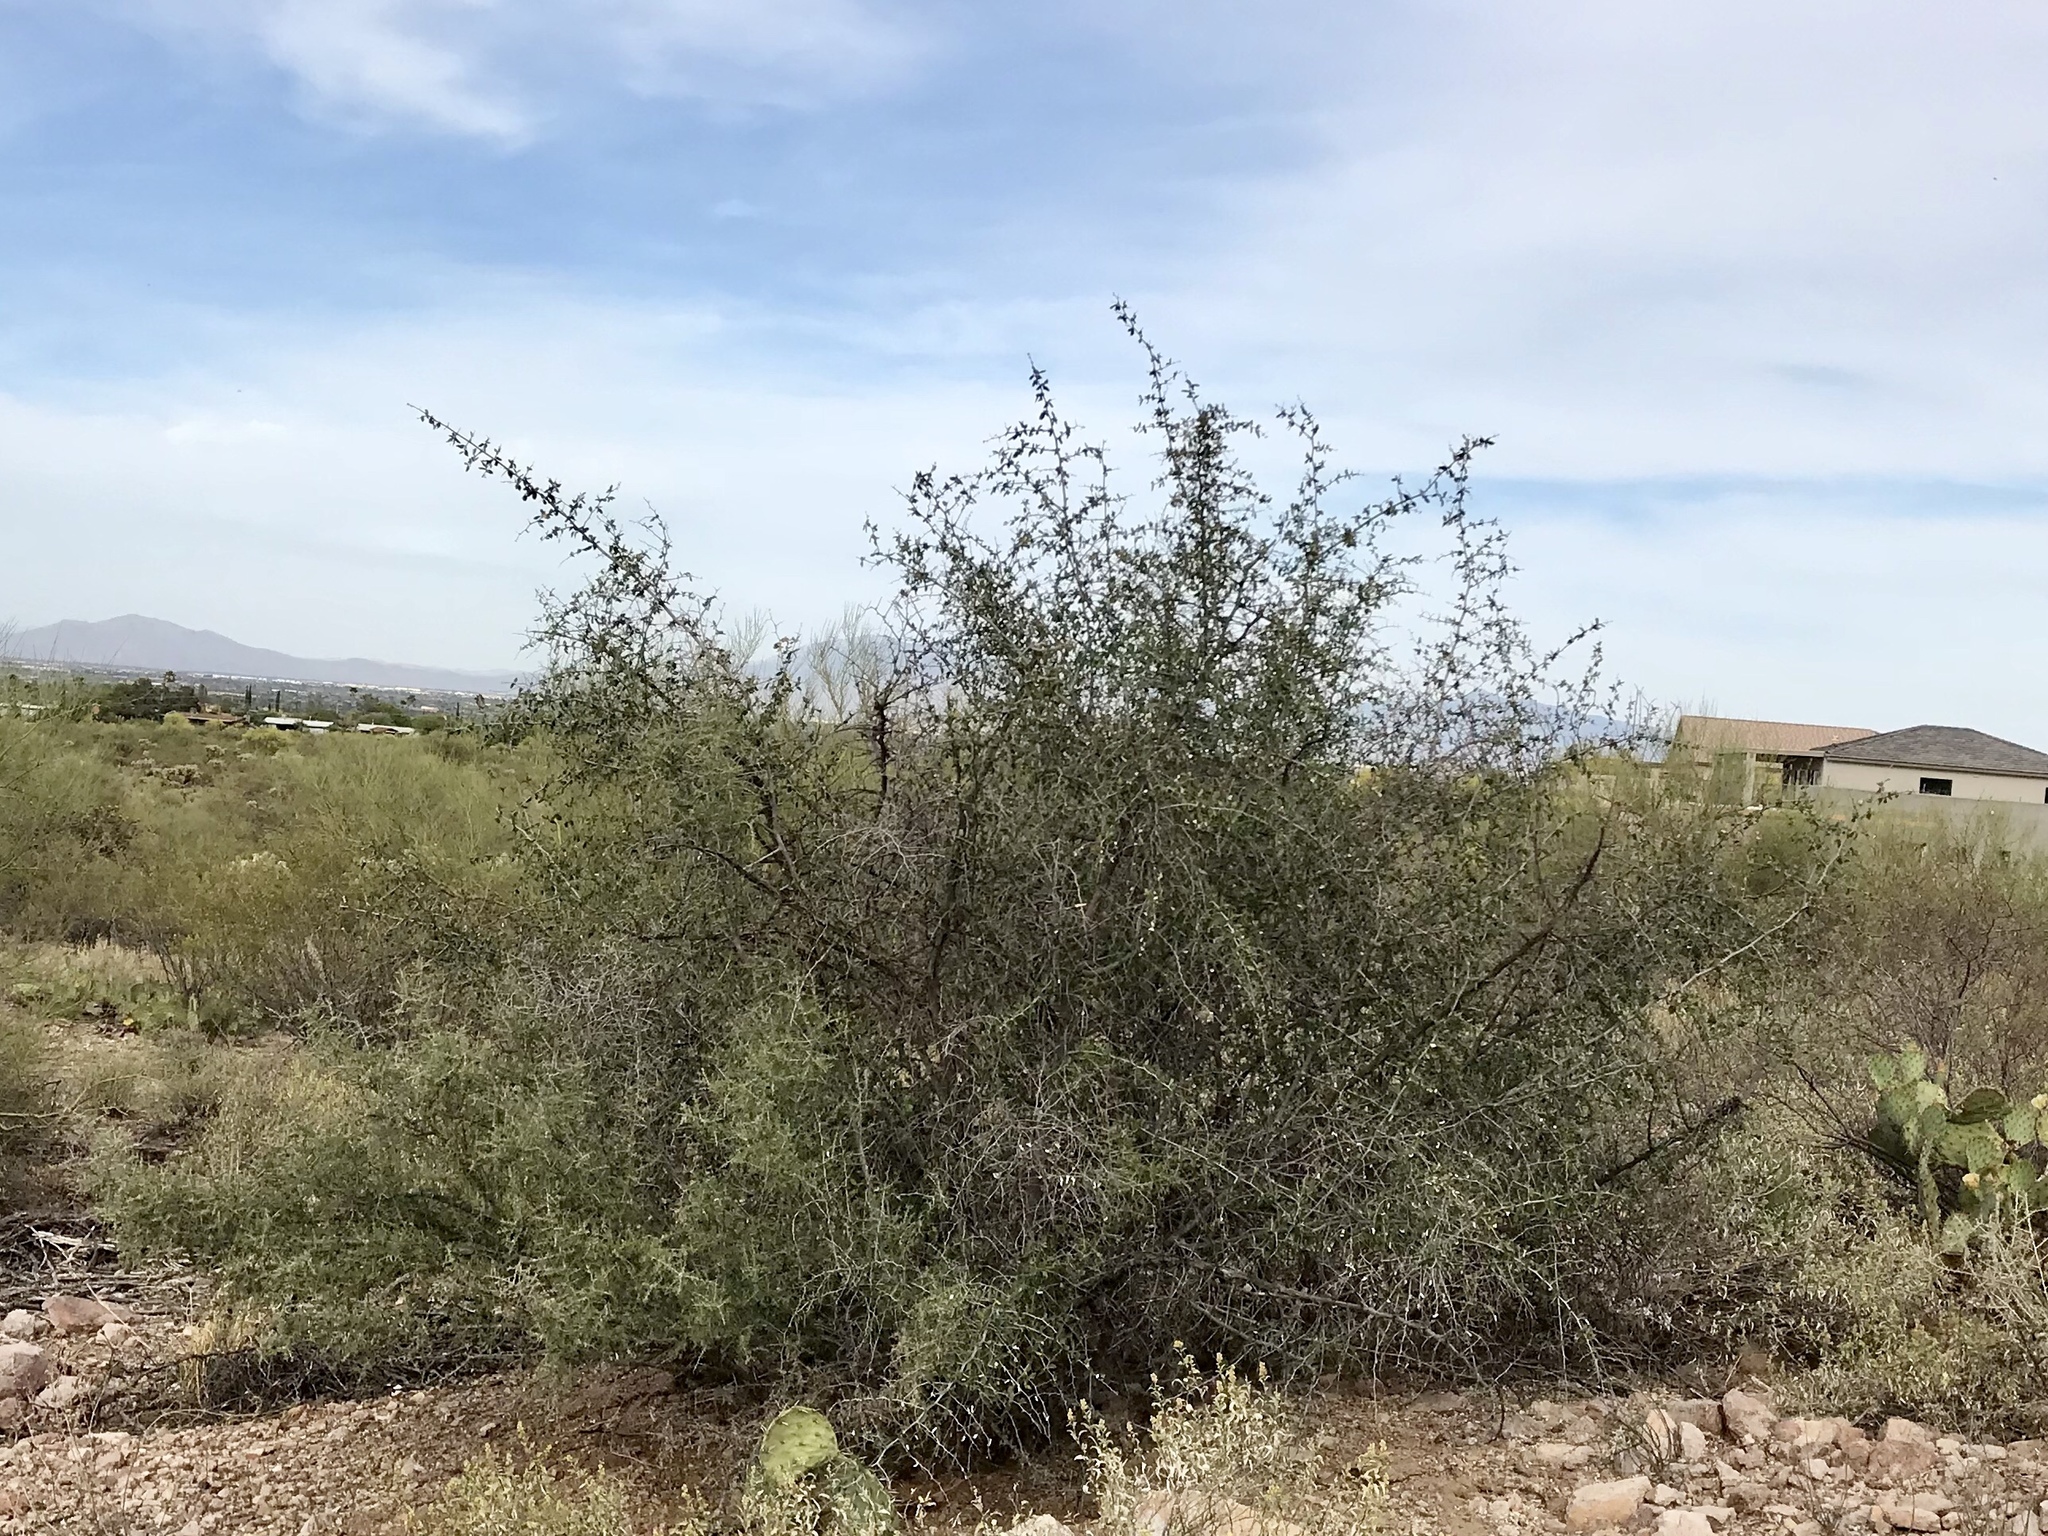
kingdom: Plantae
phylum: Tracheophyta
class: Magnoliopsida
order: Rosales
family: Cannabaceae
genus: Celtis
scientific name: Celtis pallida
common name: Desert hackberry
